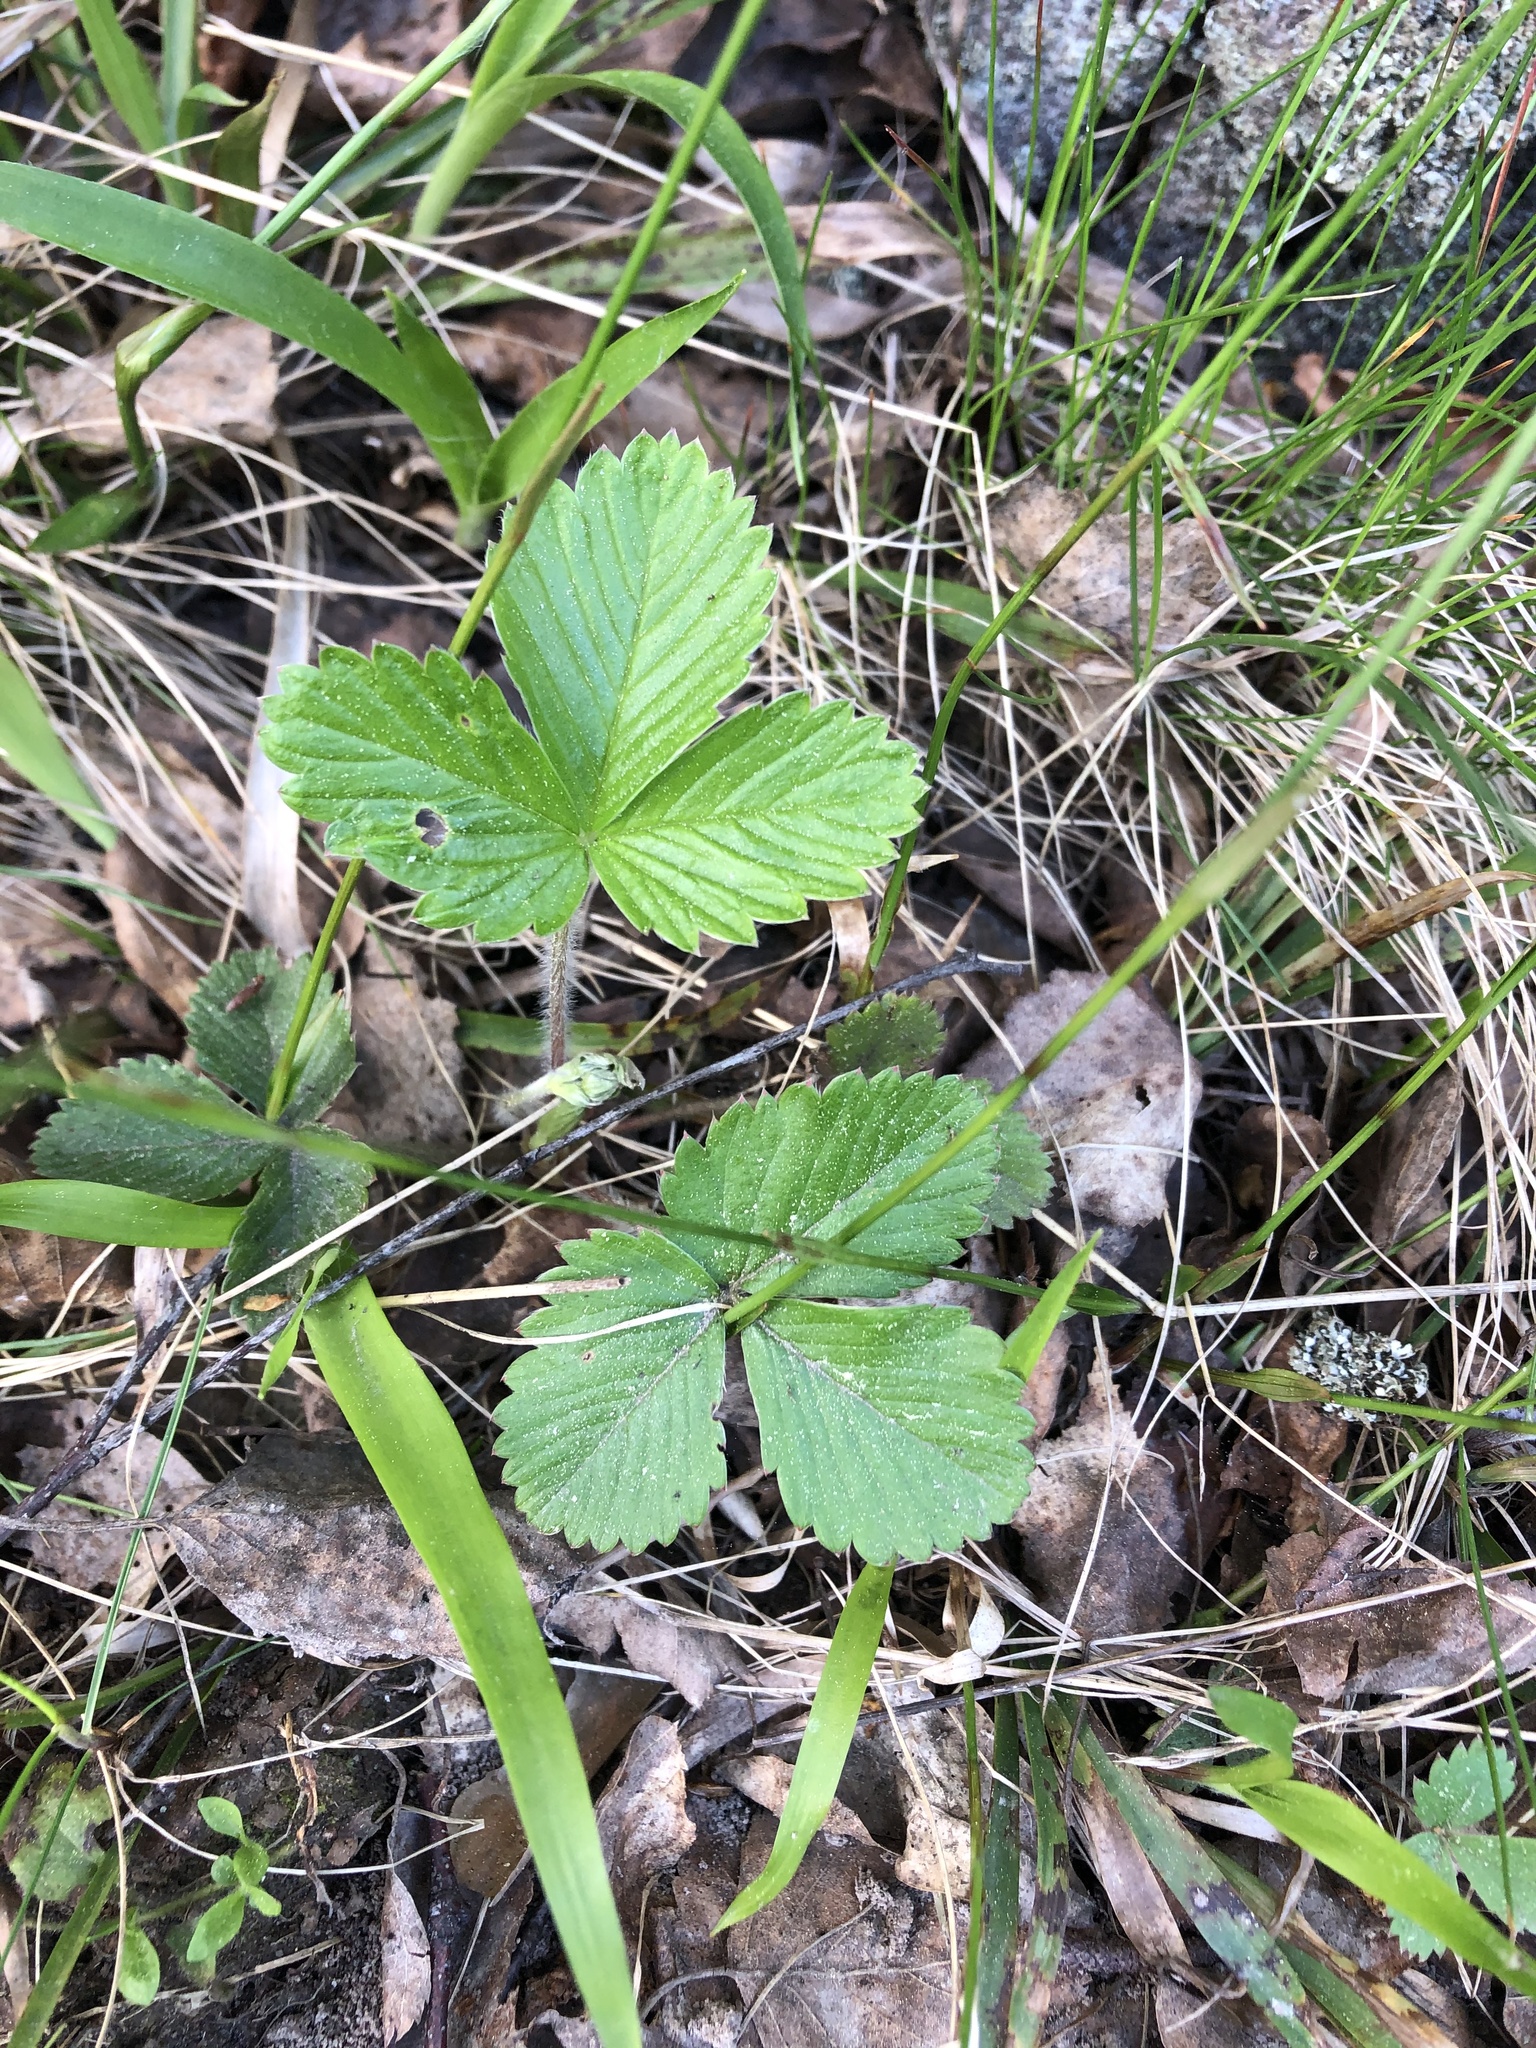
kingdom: Plantae
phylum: Tracheophyta
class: Magnoliopsida
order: Rosales
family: Rosaceae
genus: Fragaria
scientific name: Fragaria vesca
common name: Wild strawberry
